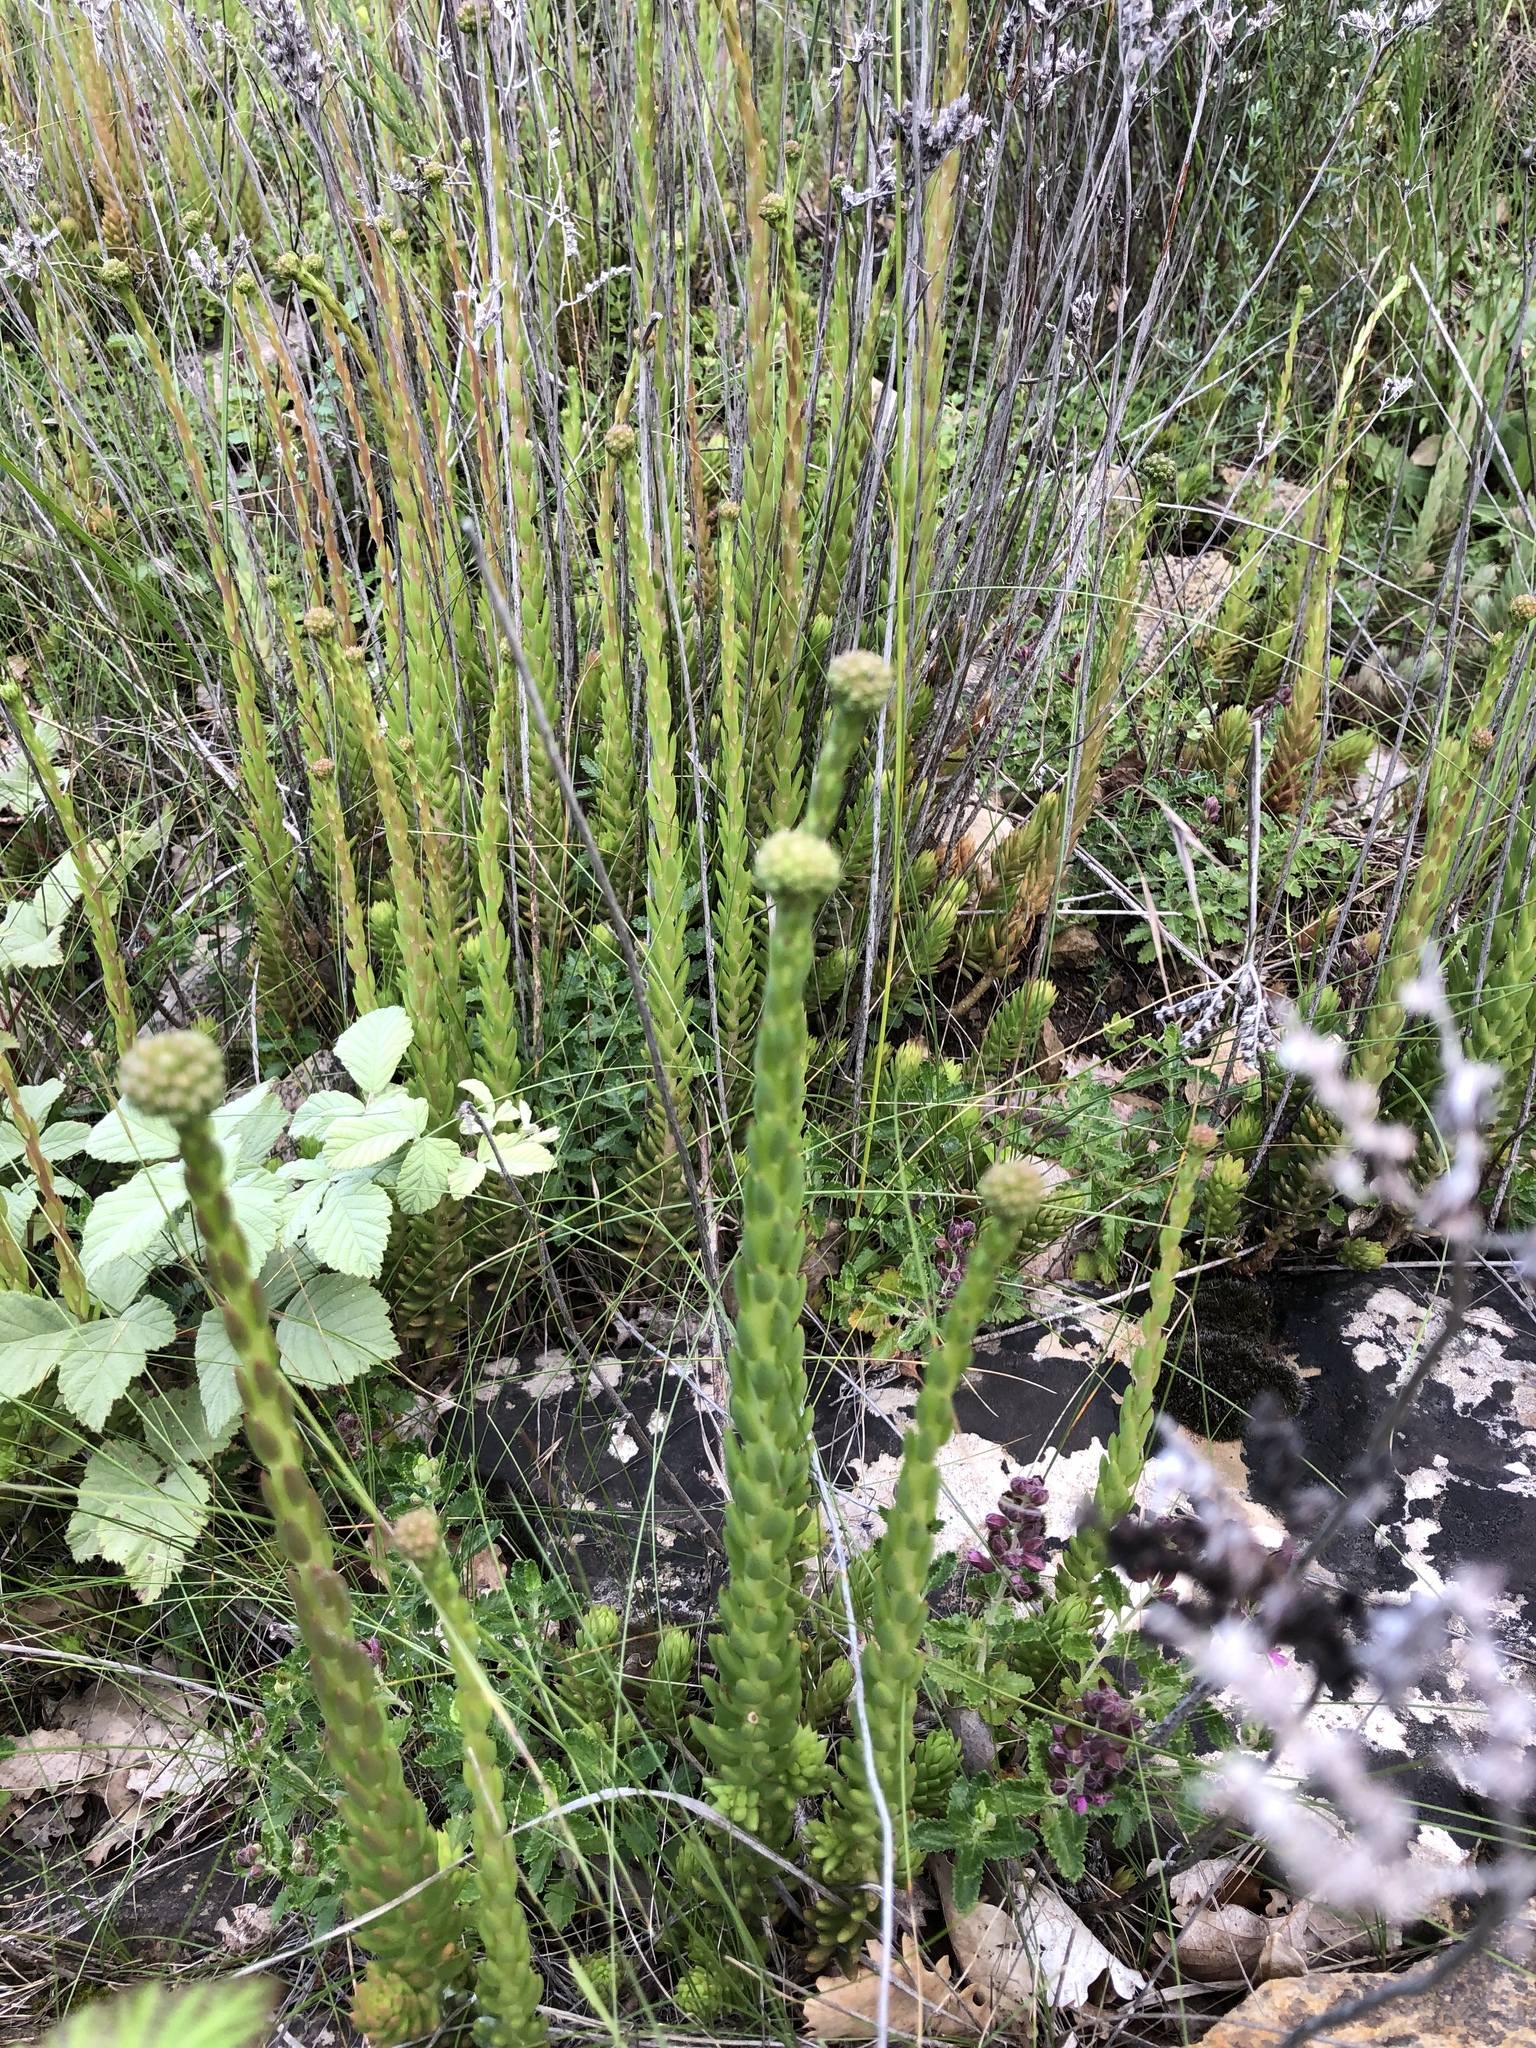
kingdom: Plantae
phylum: Tracheophyta
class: Magnoliopsida
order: Saxifragales
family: Crassulaceae
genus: Petrosedum
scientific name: Petrosedum sediforme
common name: Pale stonecrop
